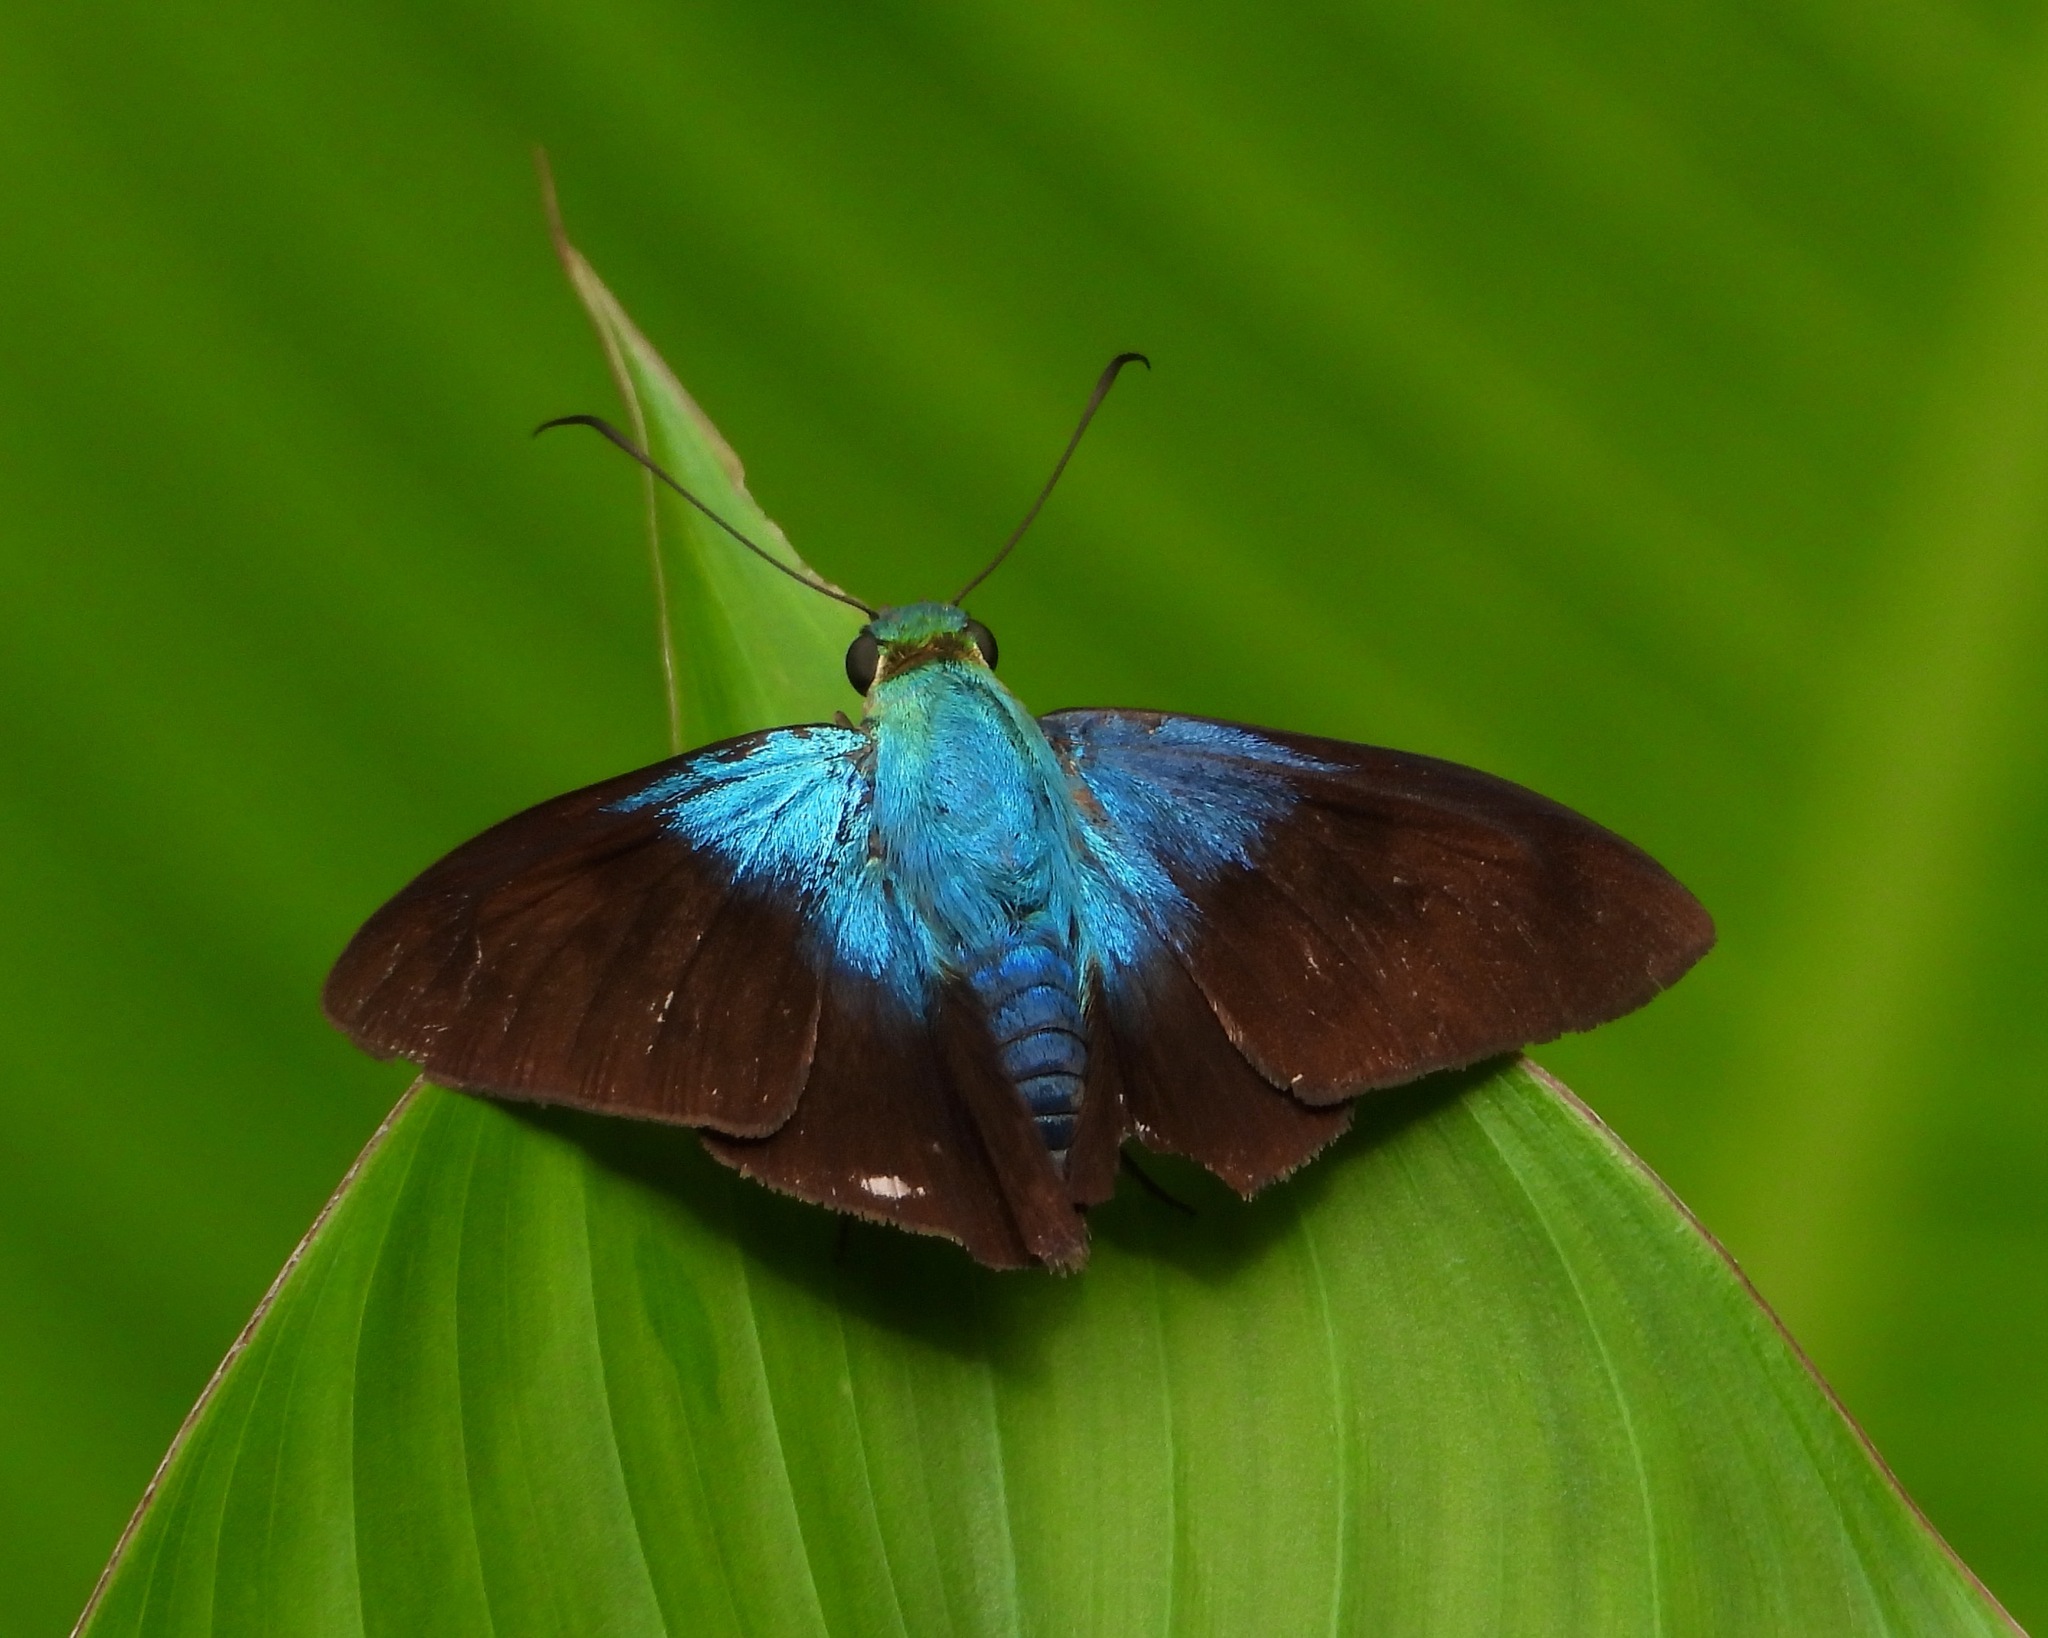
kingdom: Animalia
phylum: Arthropoda
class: Insecta
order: Lepidoptera
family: Hesperiidae
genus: Astraptes
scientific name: Astraptes alector
